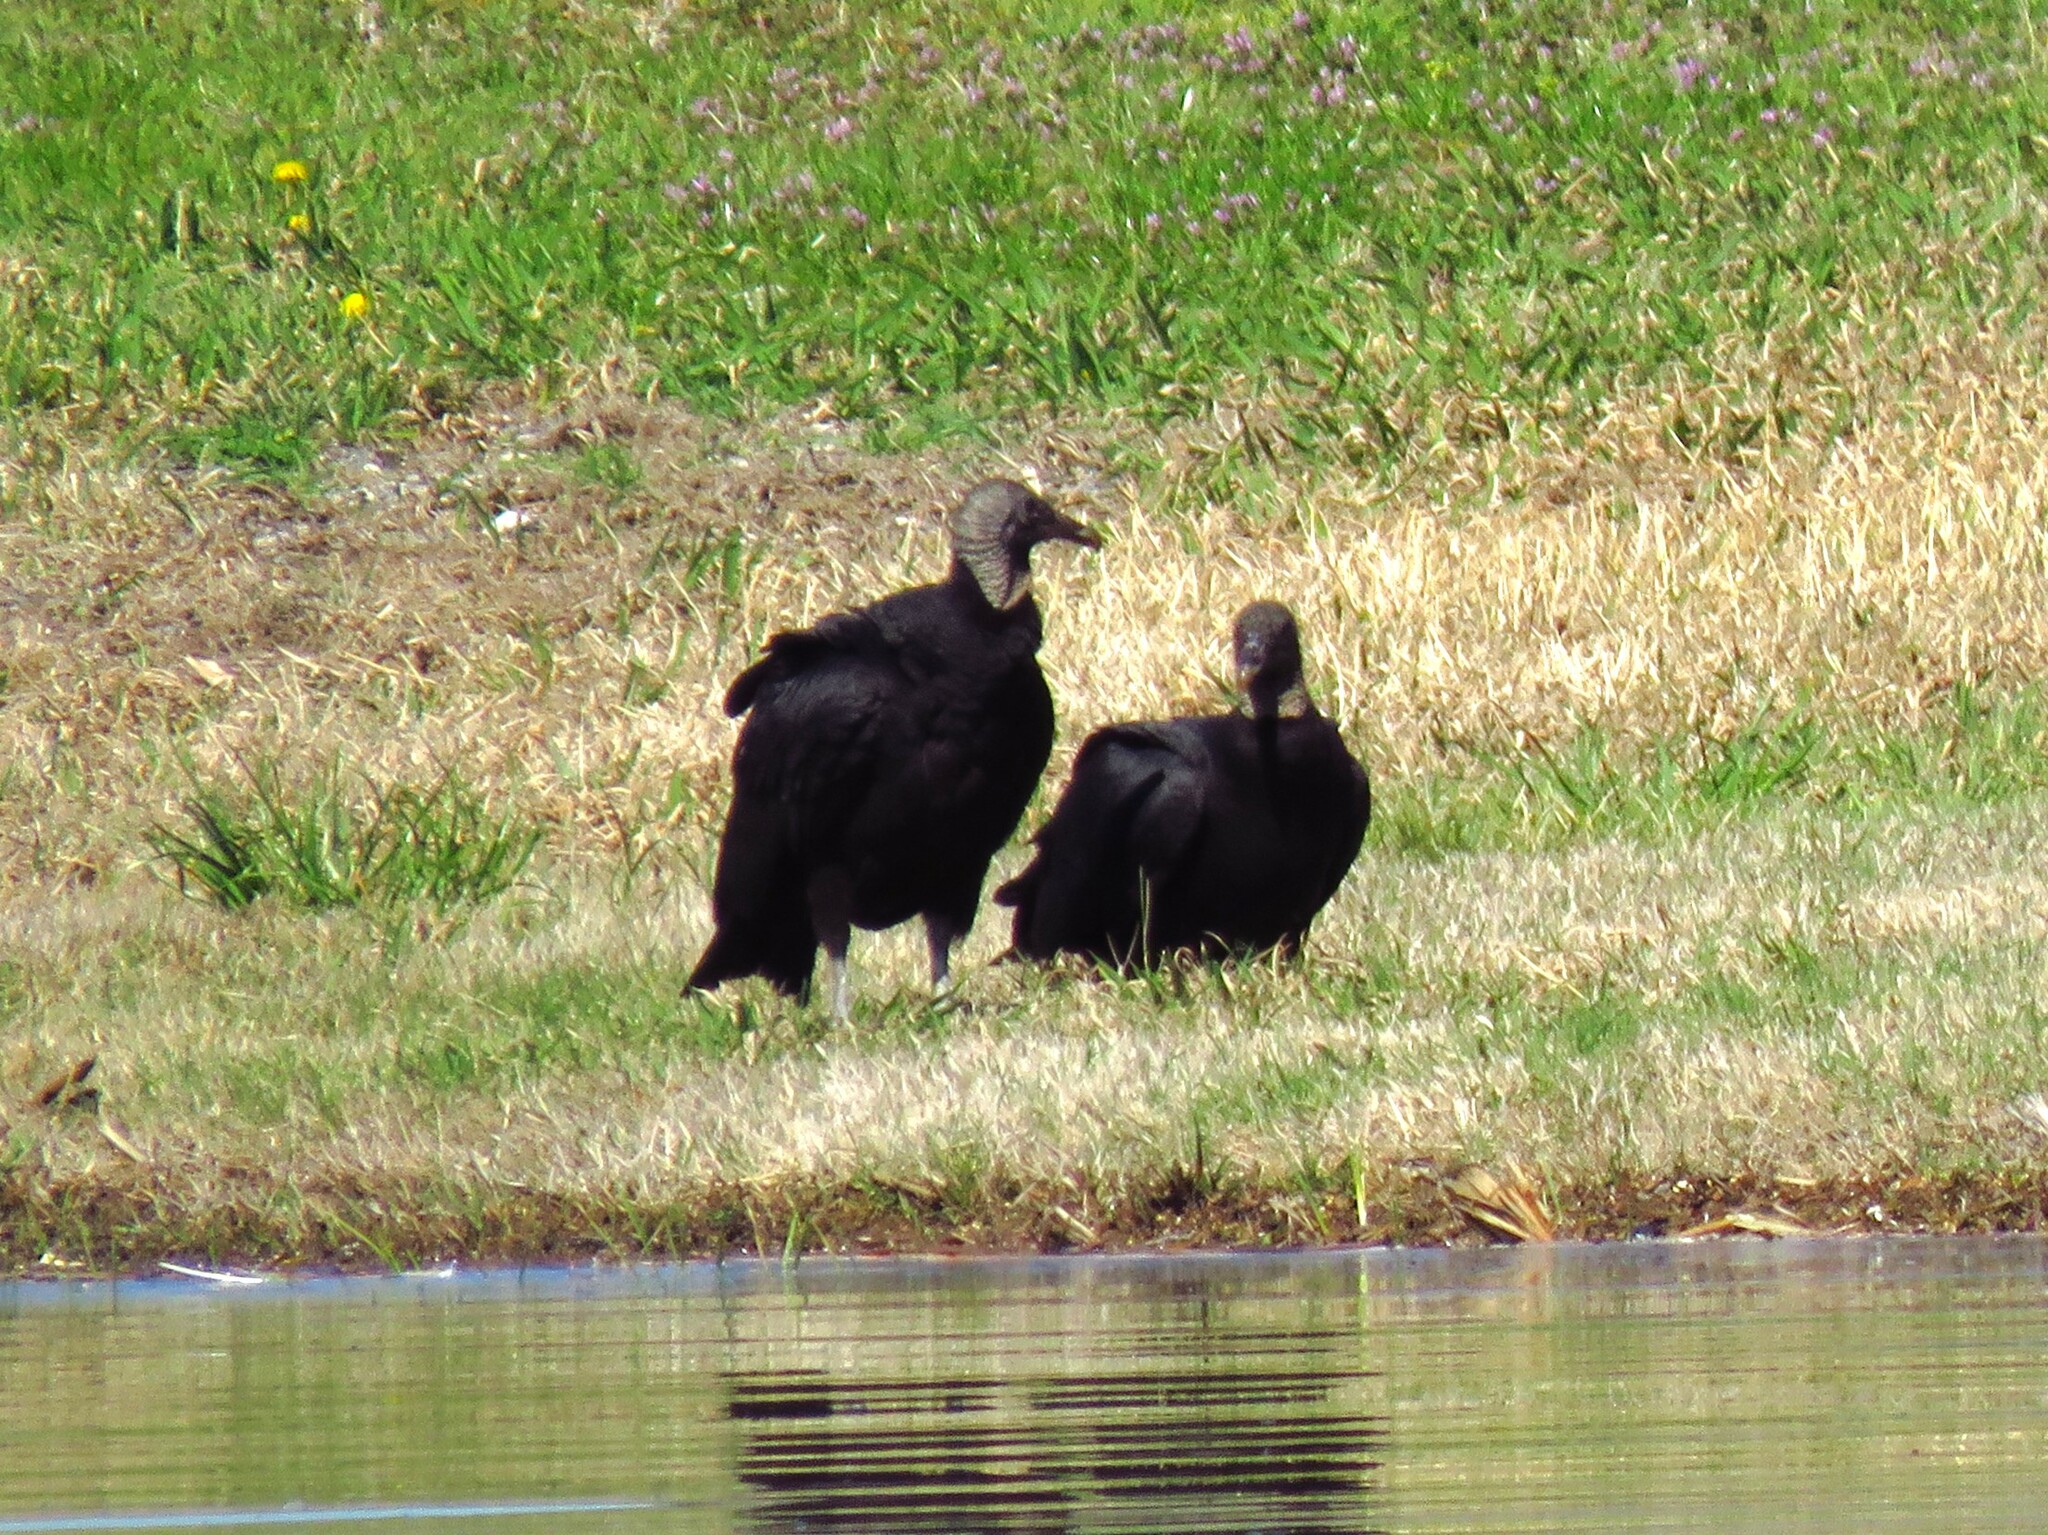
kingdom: Animalia
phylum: Chordata
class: Aves
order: Accipitriformes
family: Cathartidae
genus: Coragyps
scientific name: Coragyps atratus
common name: Black vulture
